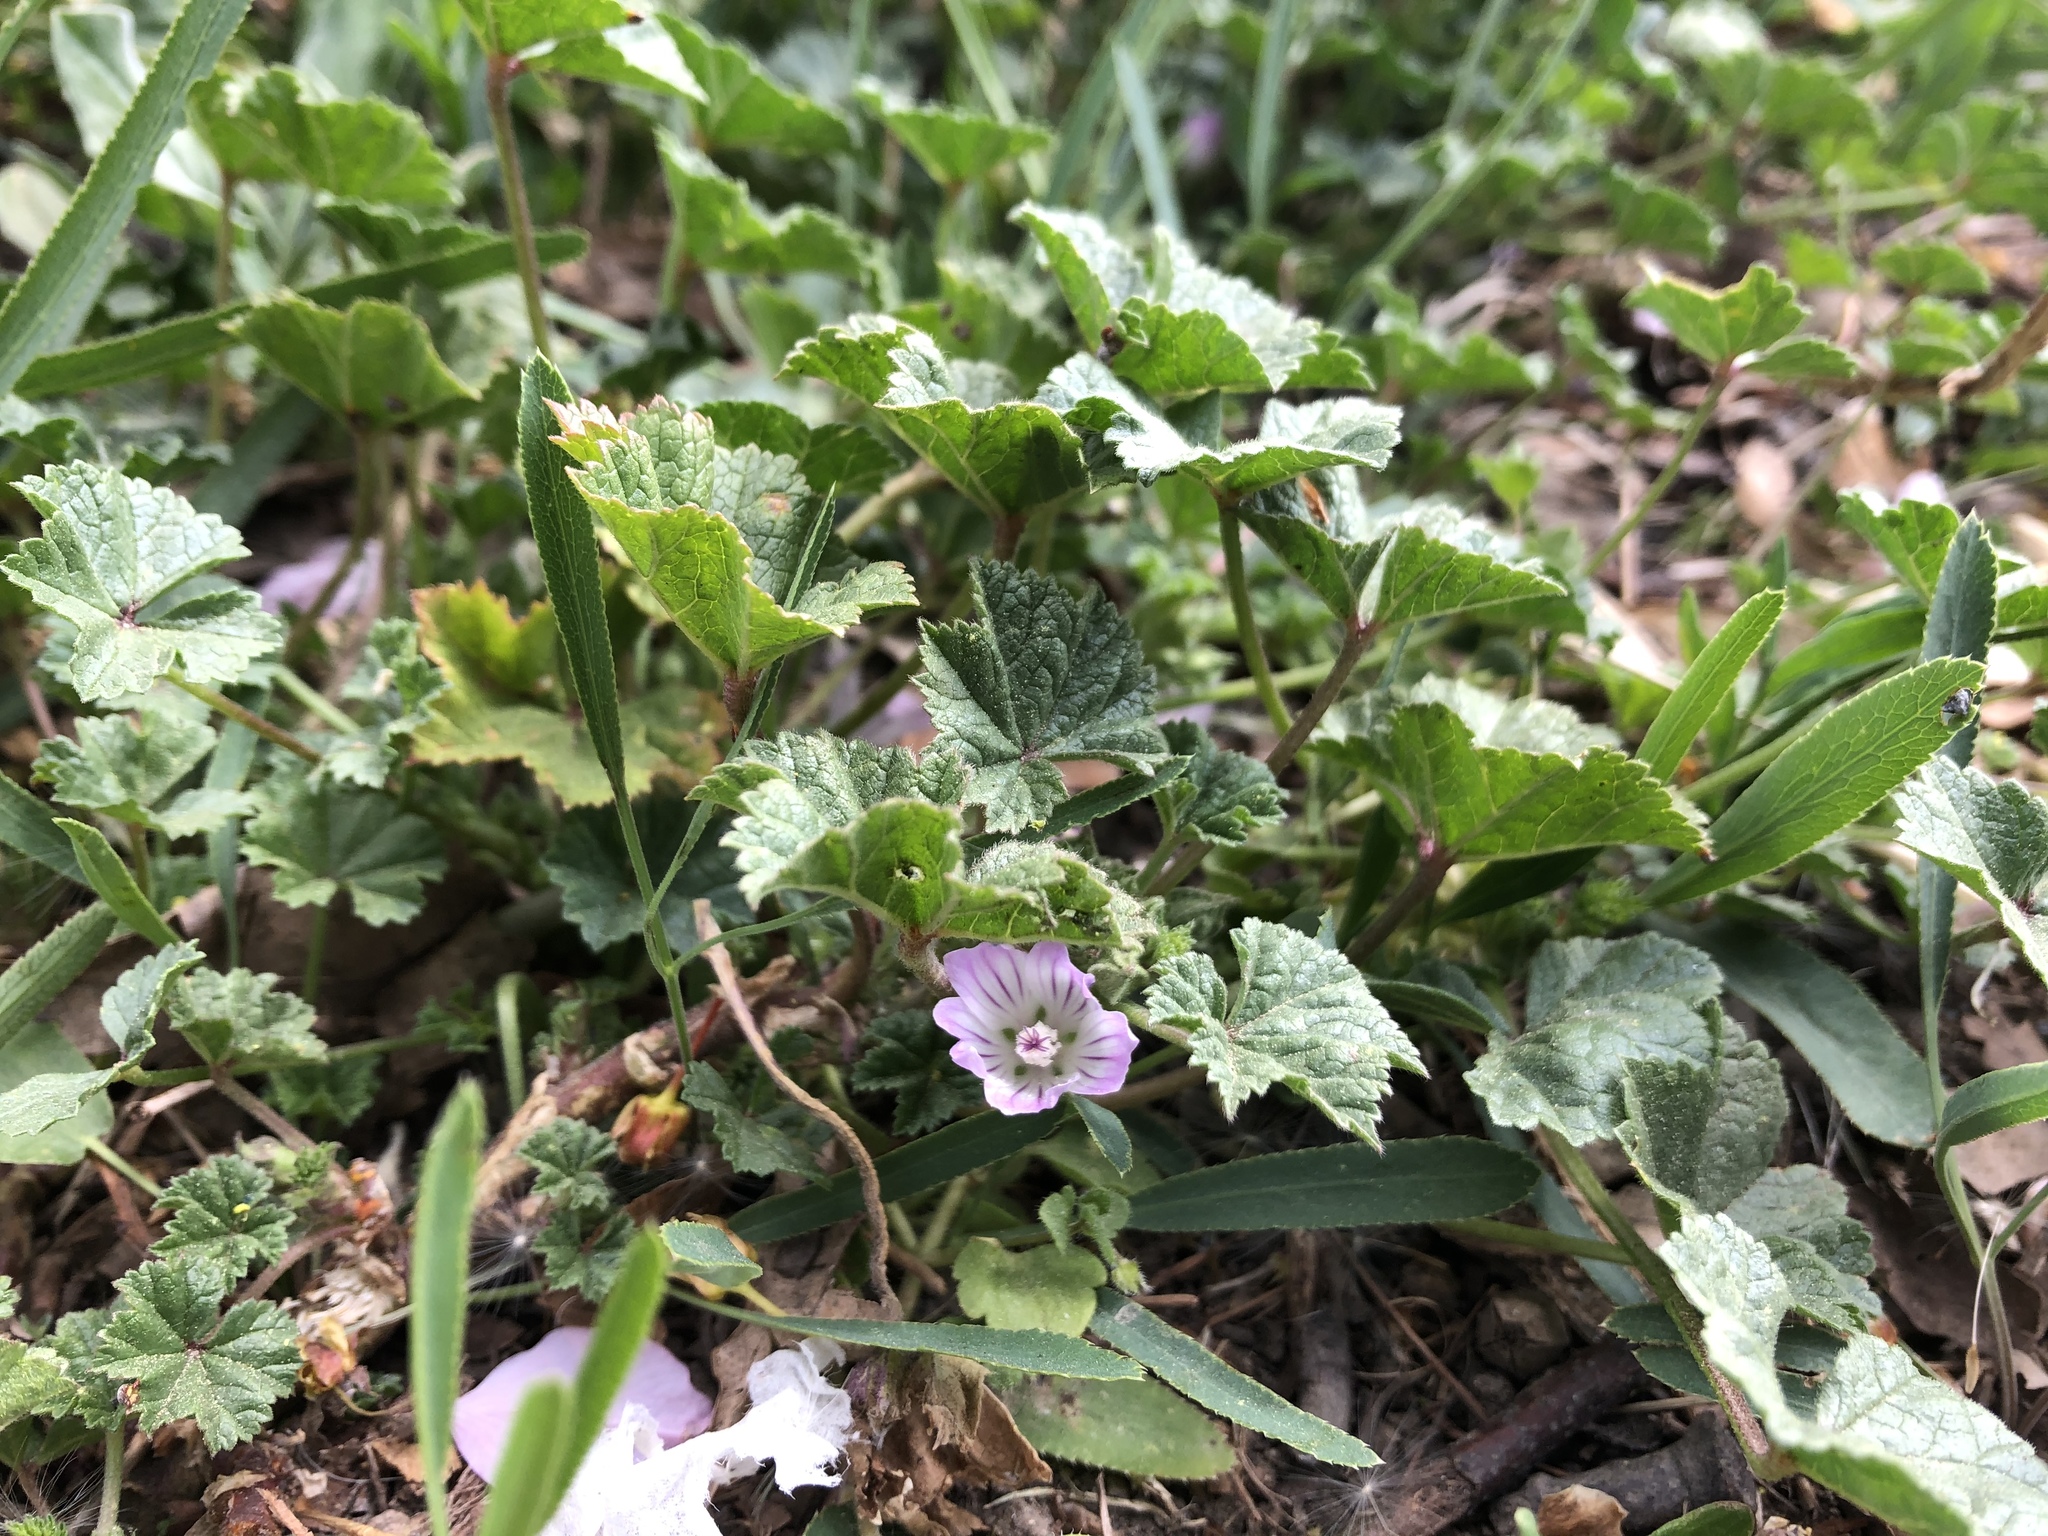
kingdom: Plantae
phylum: Tracheophyta
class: Magnoliopsida
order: Malvales
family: Malvaceae
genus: Malva
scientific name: Malva neglecta
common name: Common mallow
